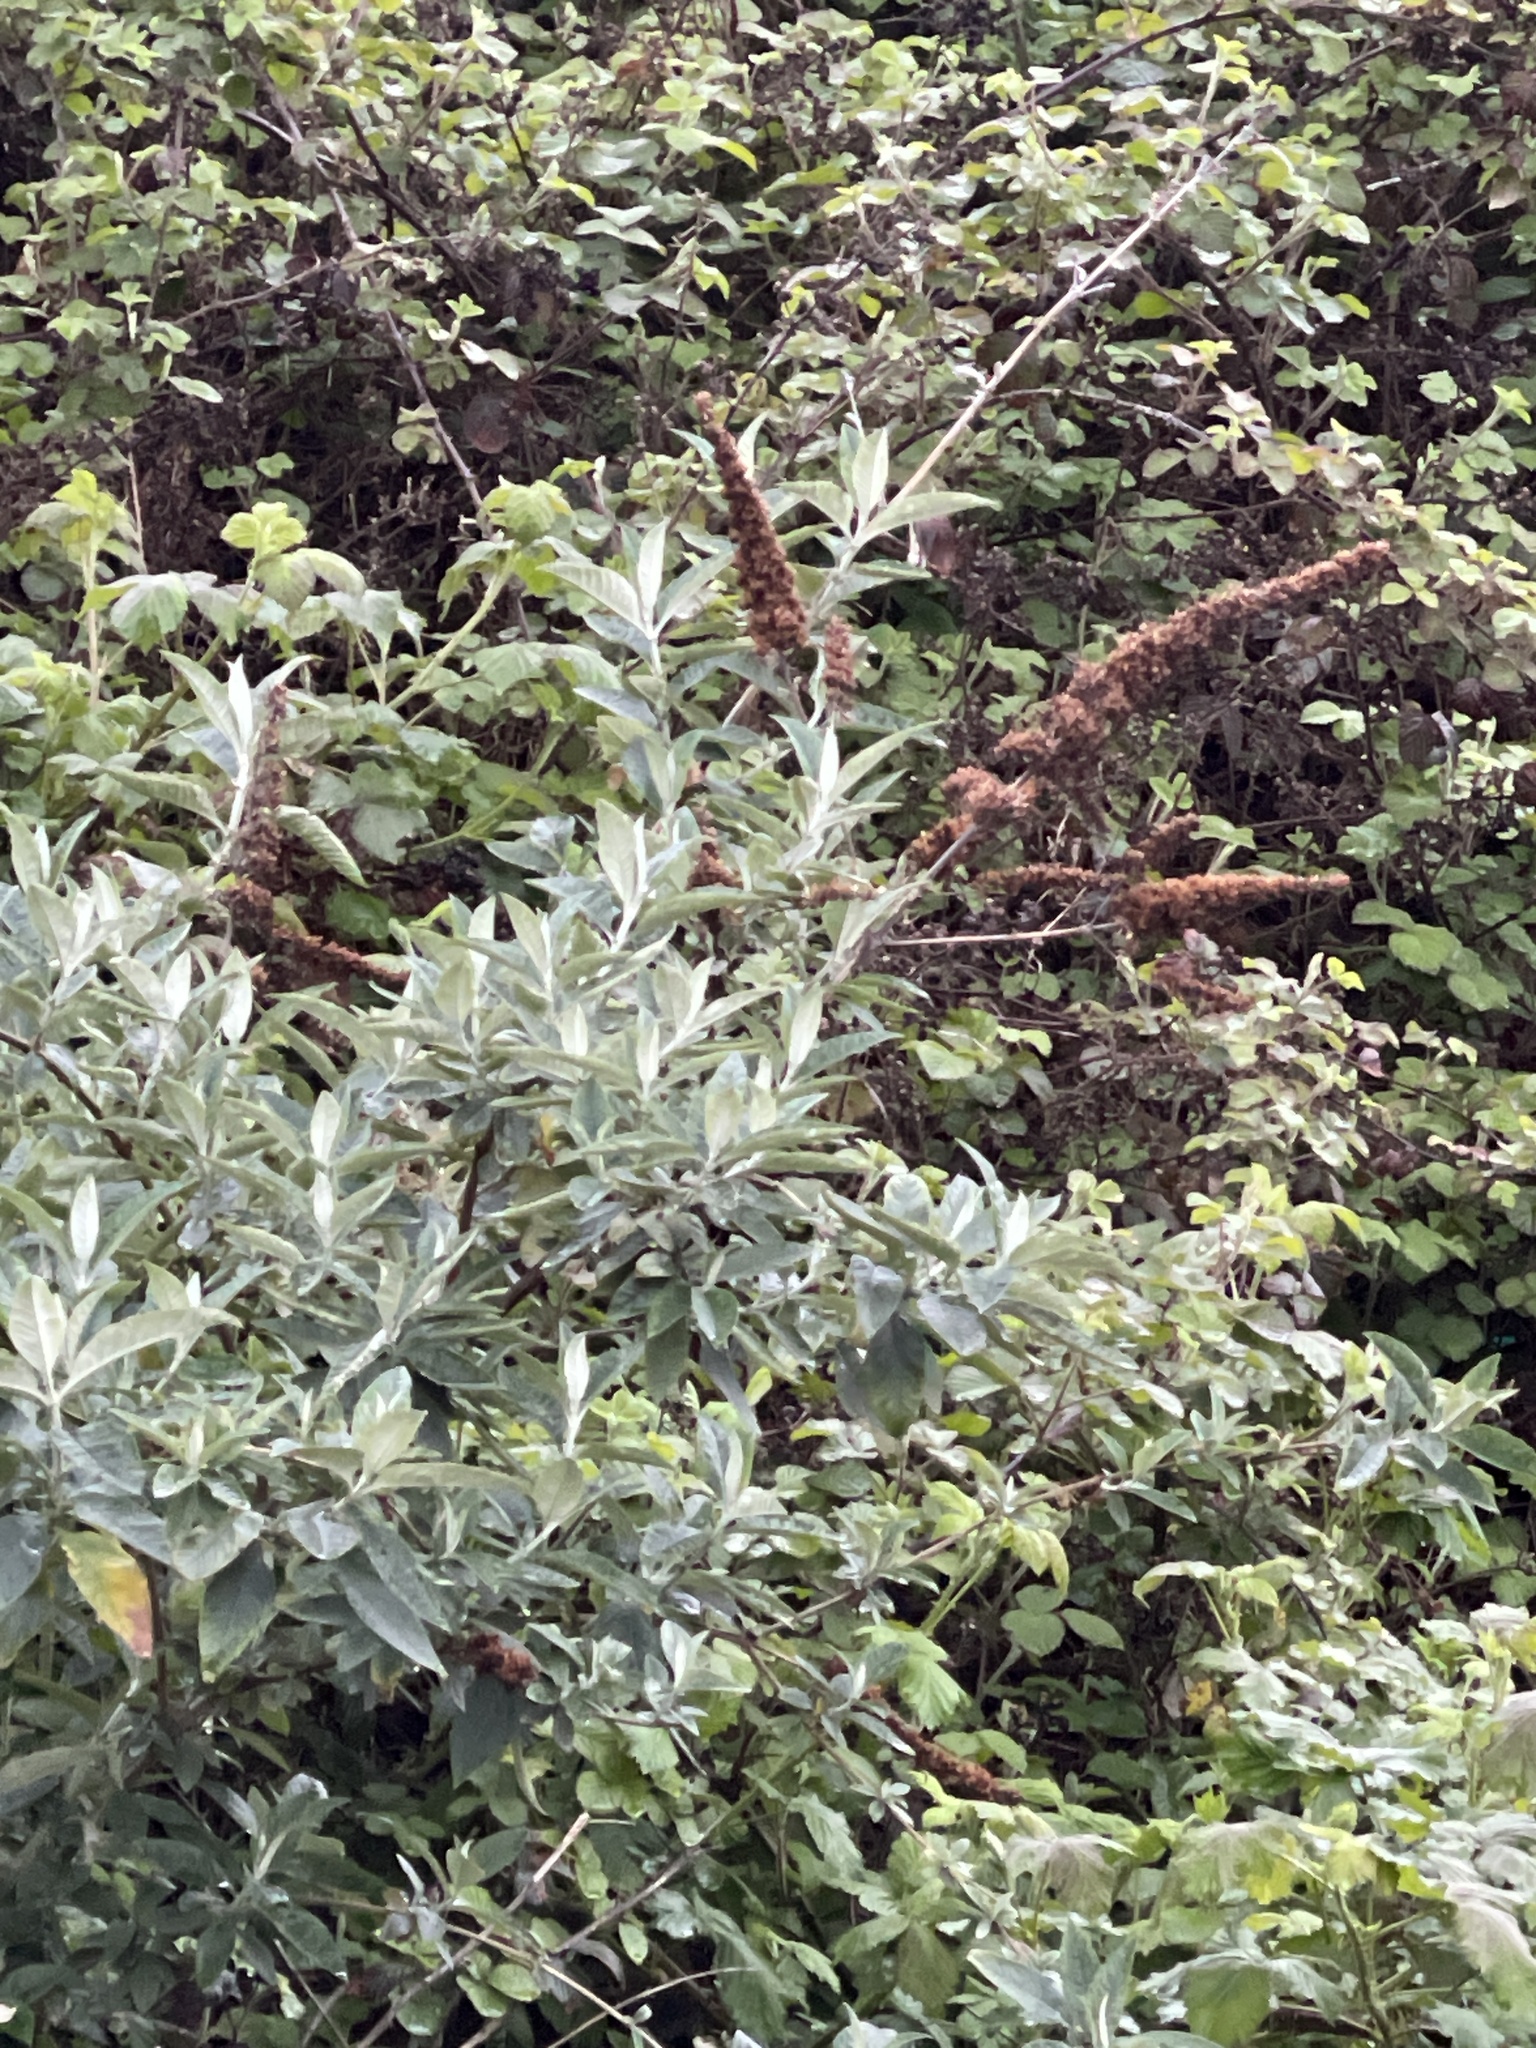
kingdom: Plantae
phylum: Tracheophyta
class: Magnoliopsida
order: Lamiales
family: Scrophulariaceae
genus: Buddleja
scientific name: Buddleja davidii
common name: Butterfly-bush
